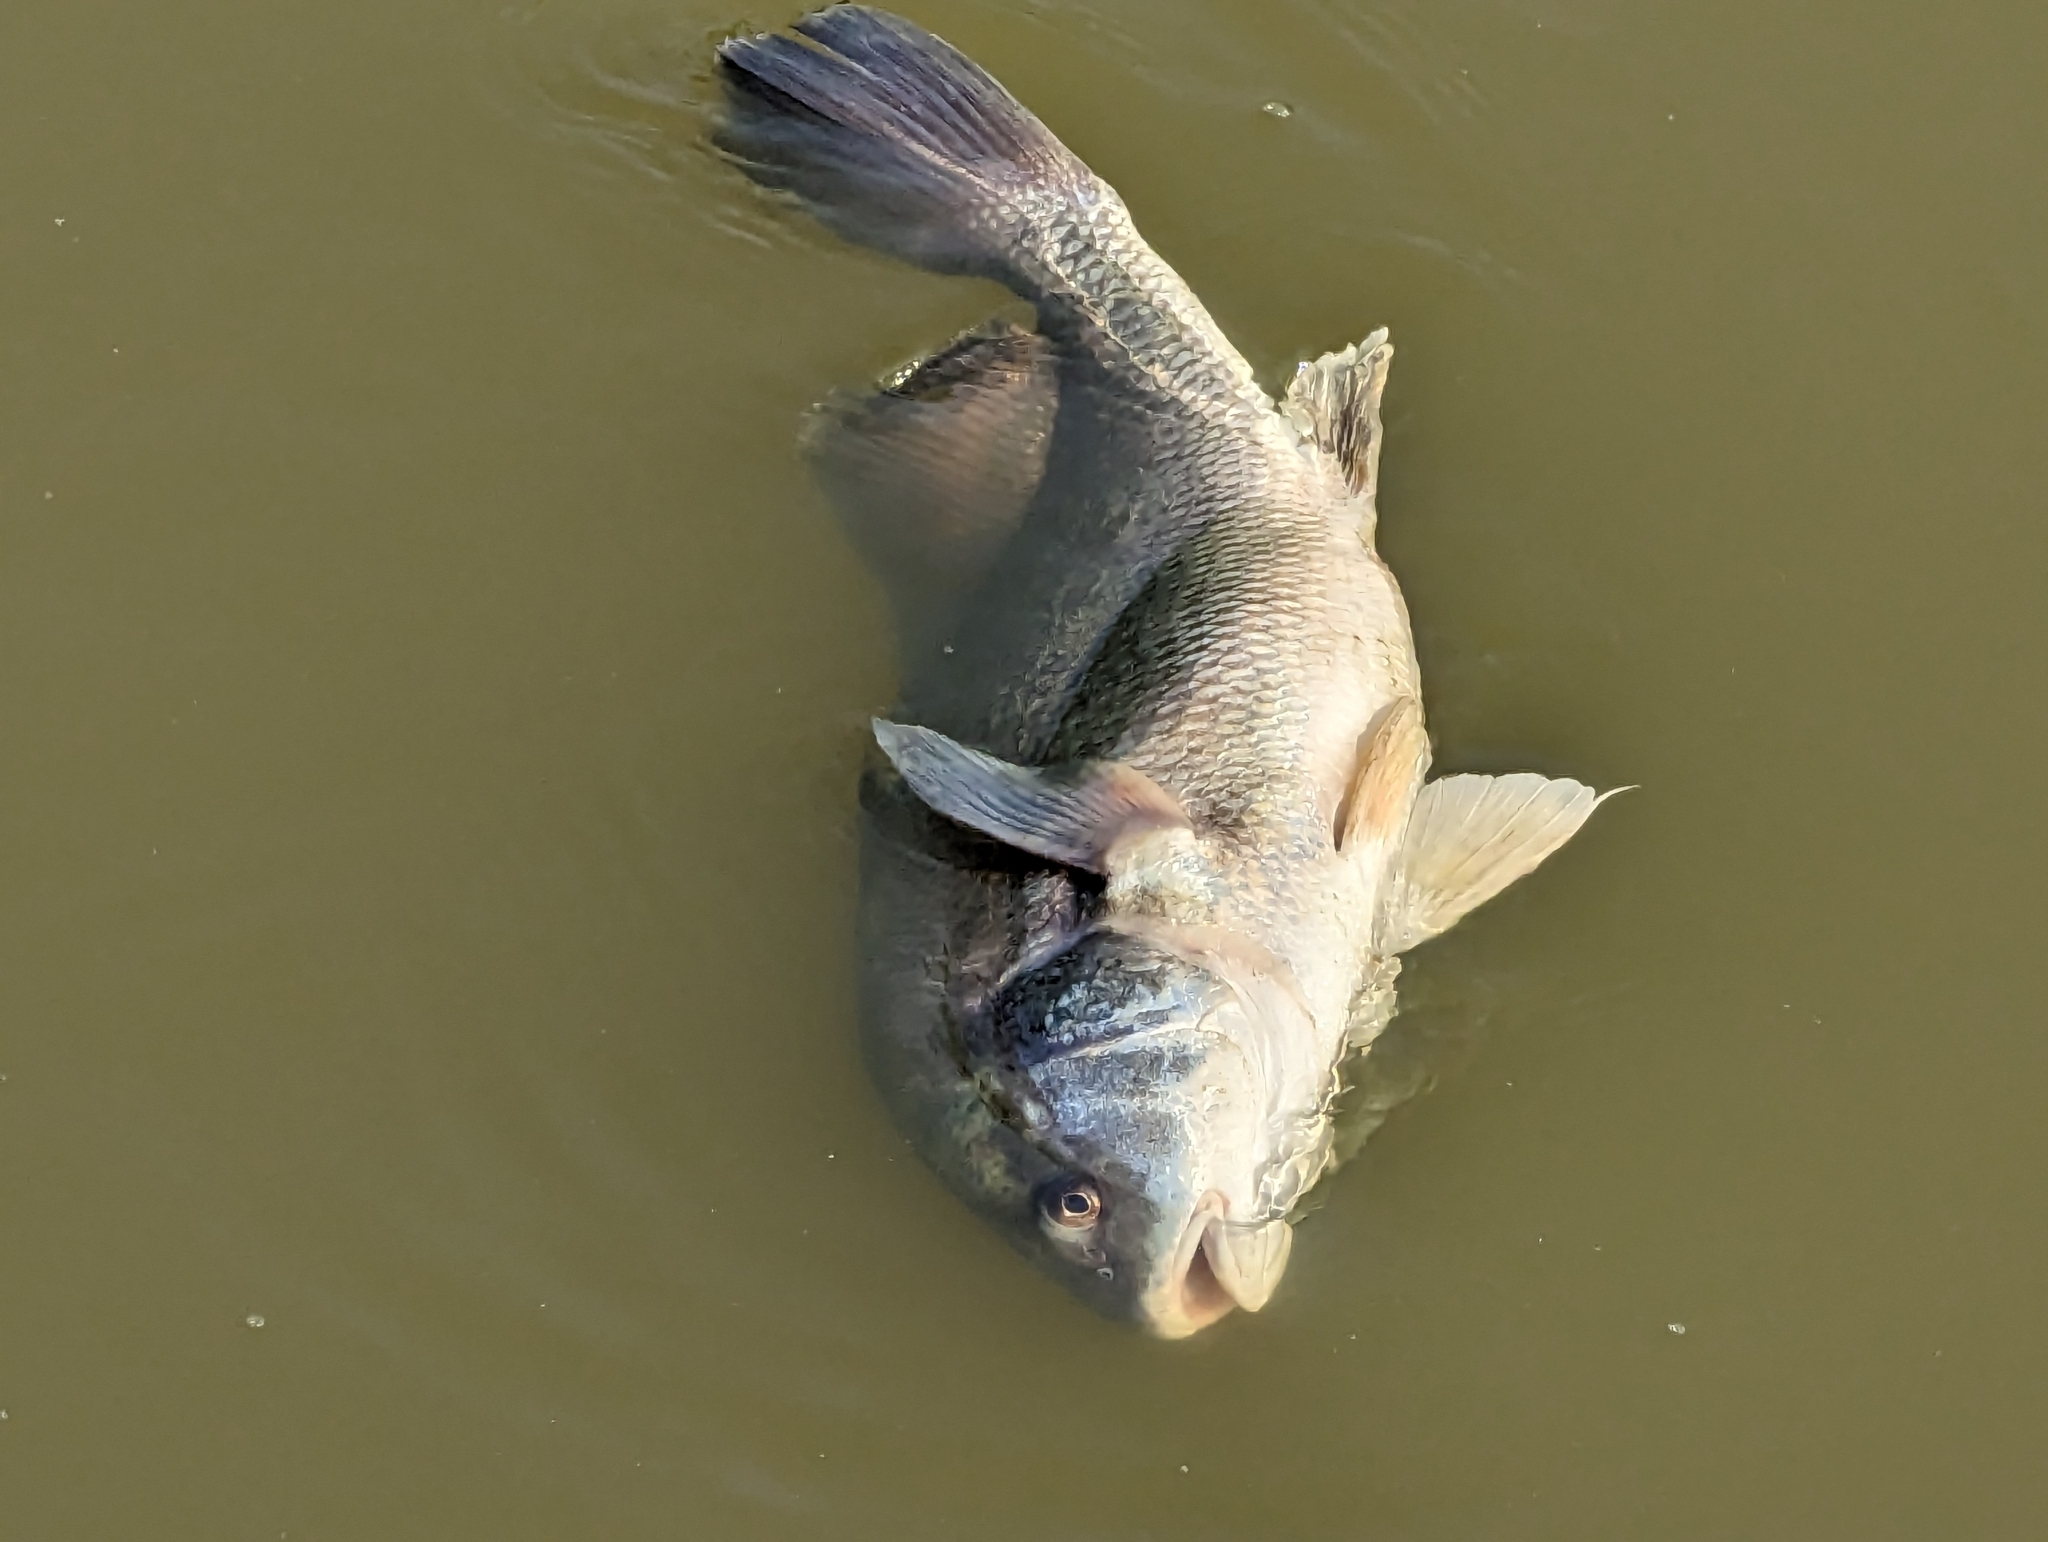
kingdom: Animalia
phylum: Chordata
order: Perciformes
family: Sciaenidae
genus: Aplodinotus
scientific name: Aplodinotus grunniens
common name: Freshwater drum
